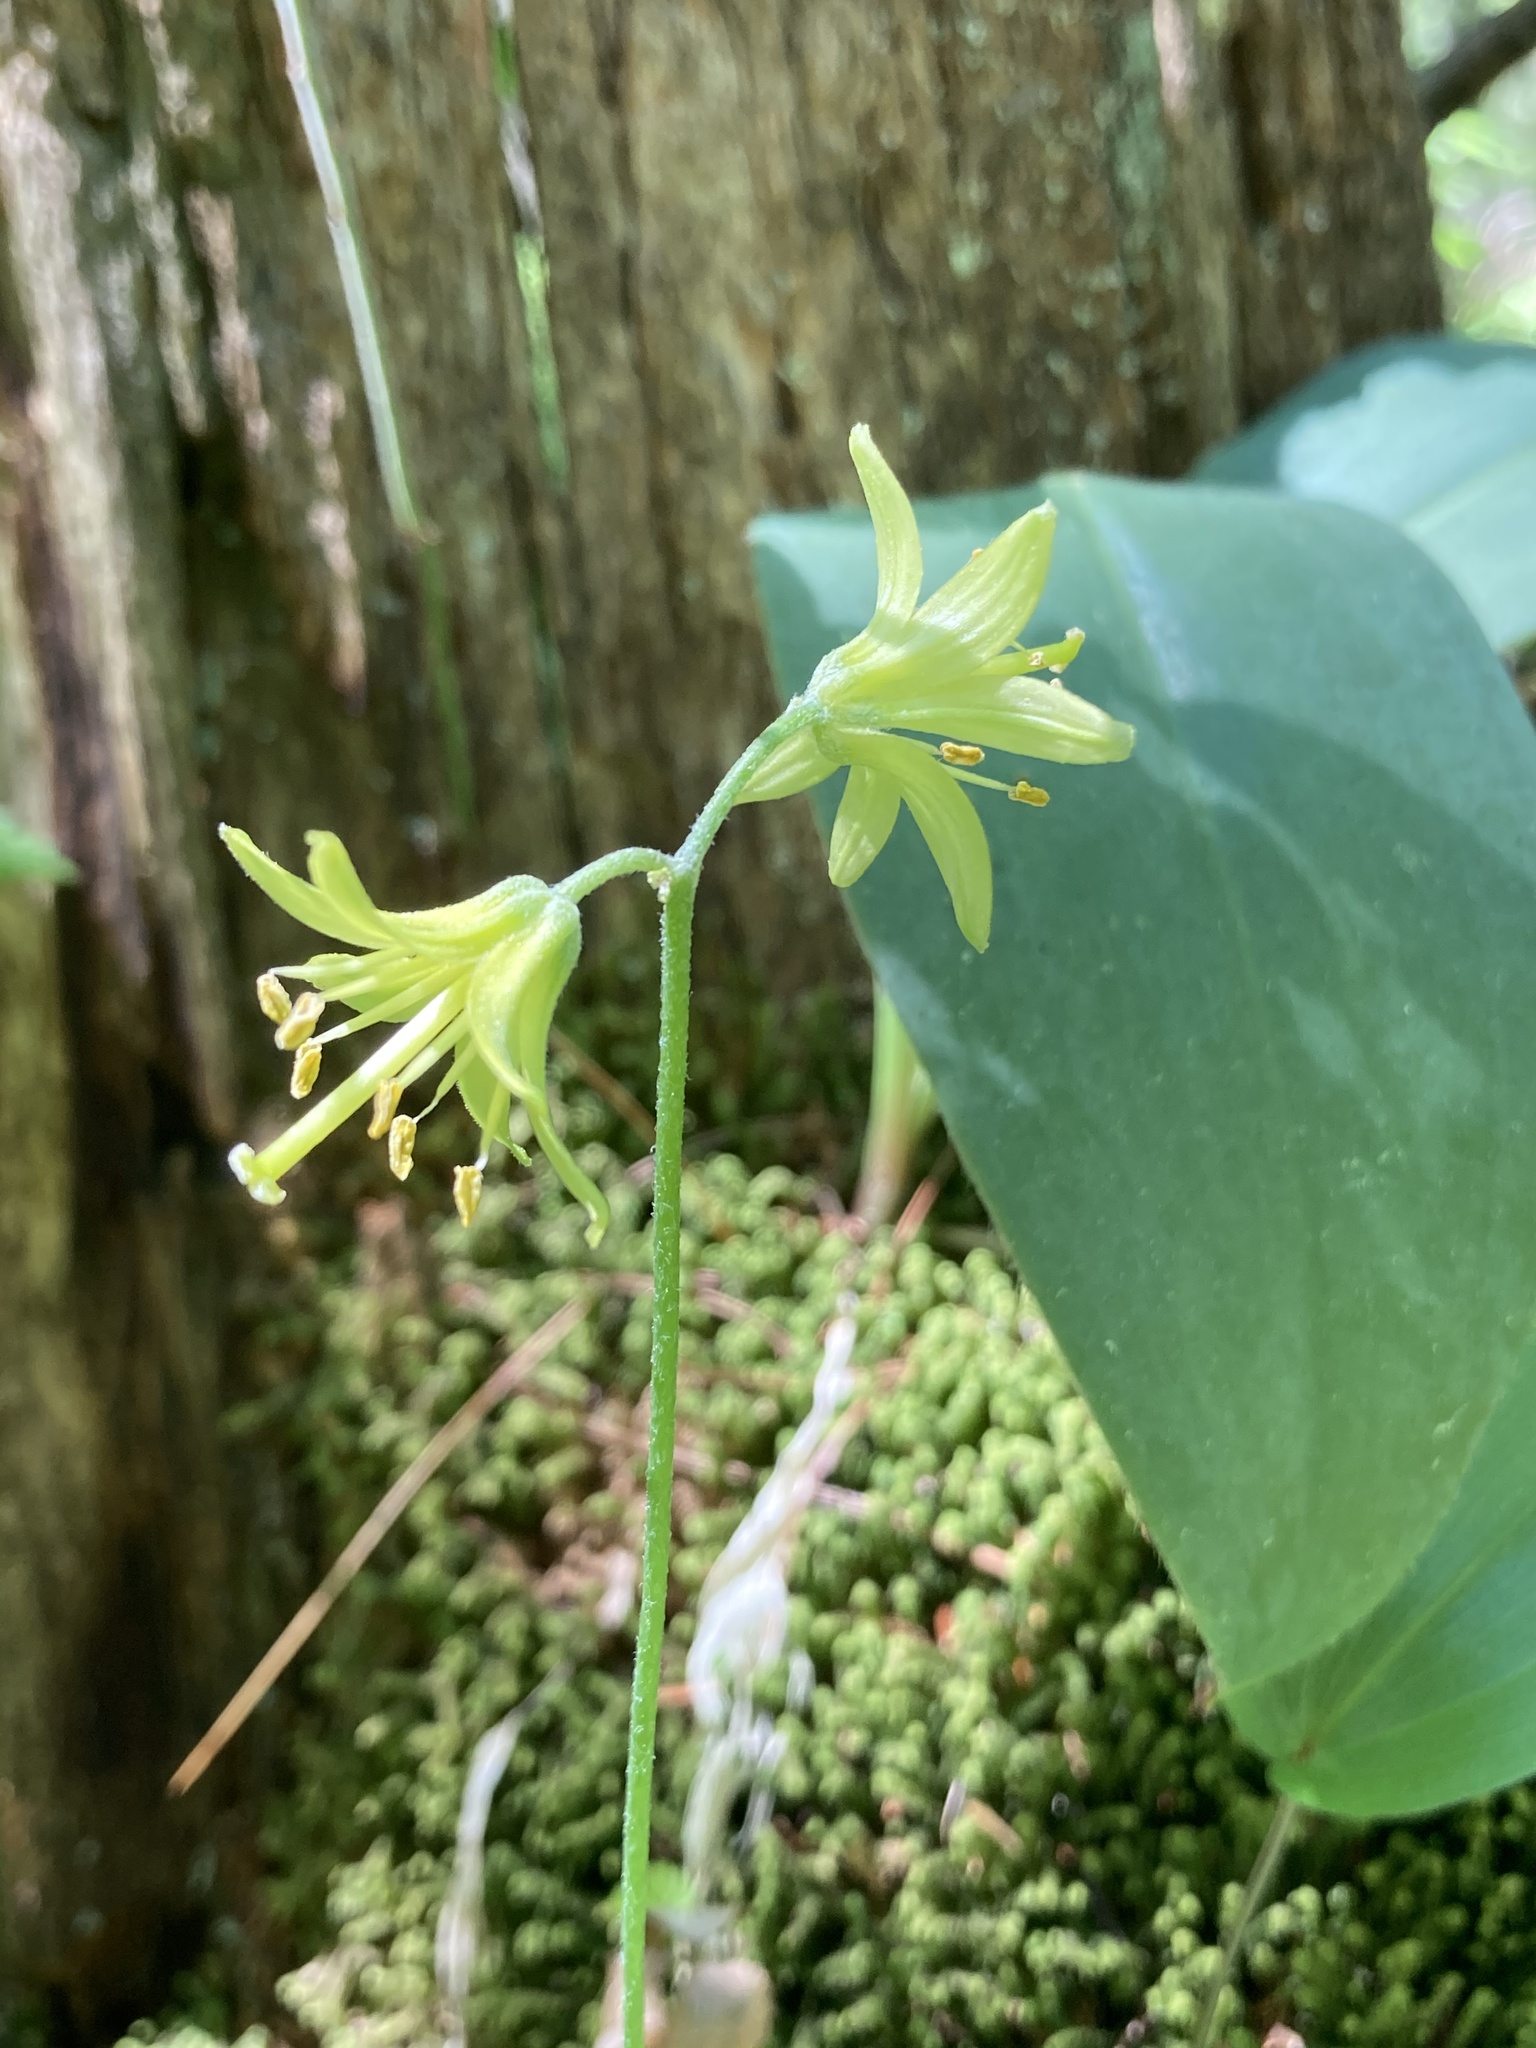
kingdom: Plantae
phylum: Tracheophyta
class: Liliopsida
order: Liliales
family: Liliaceae
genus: Clintonia
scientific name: Clintonia borealis
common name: Yellow clintonia
